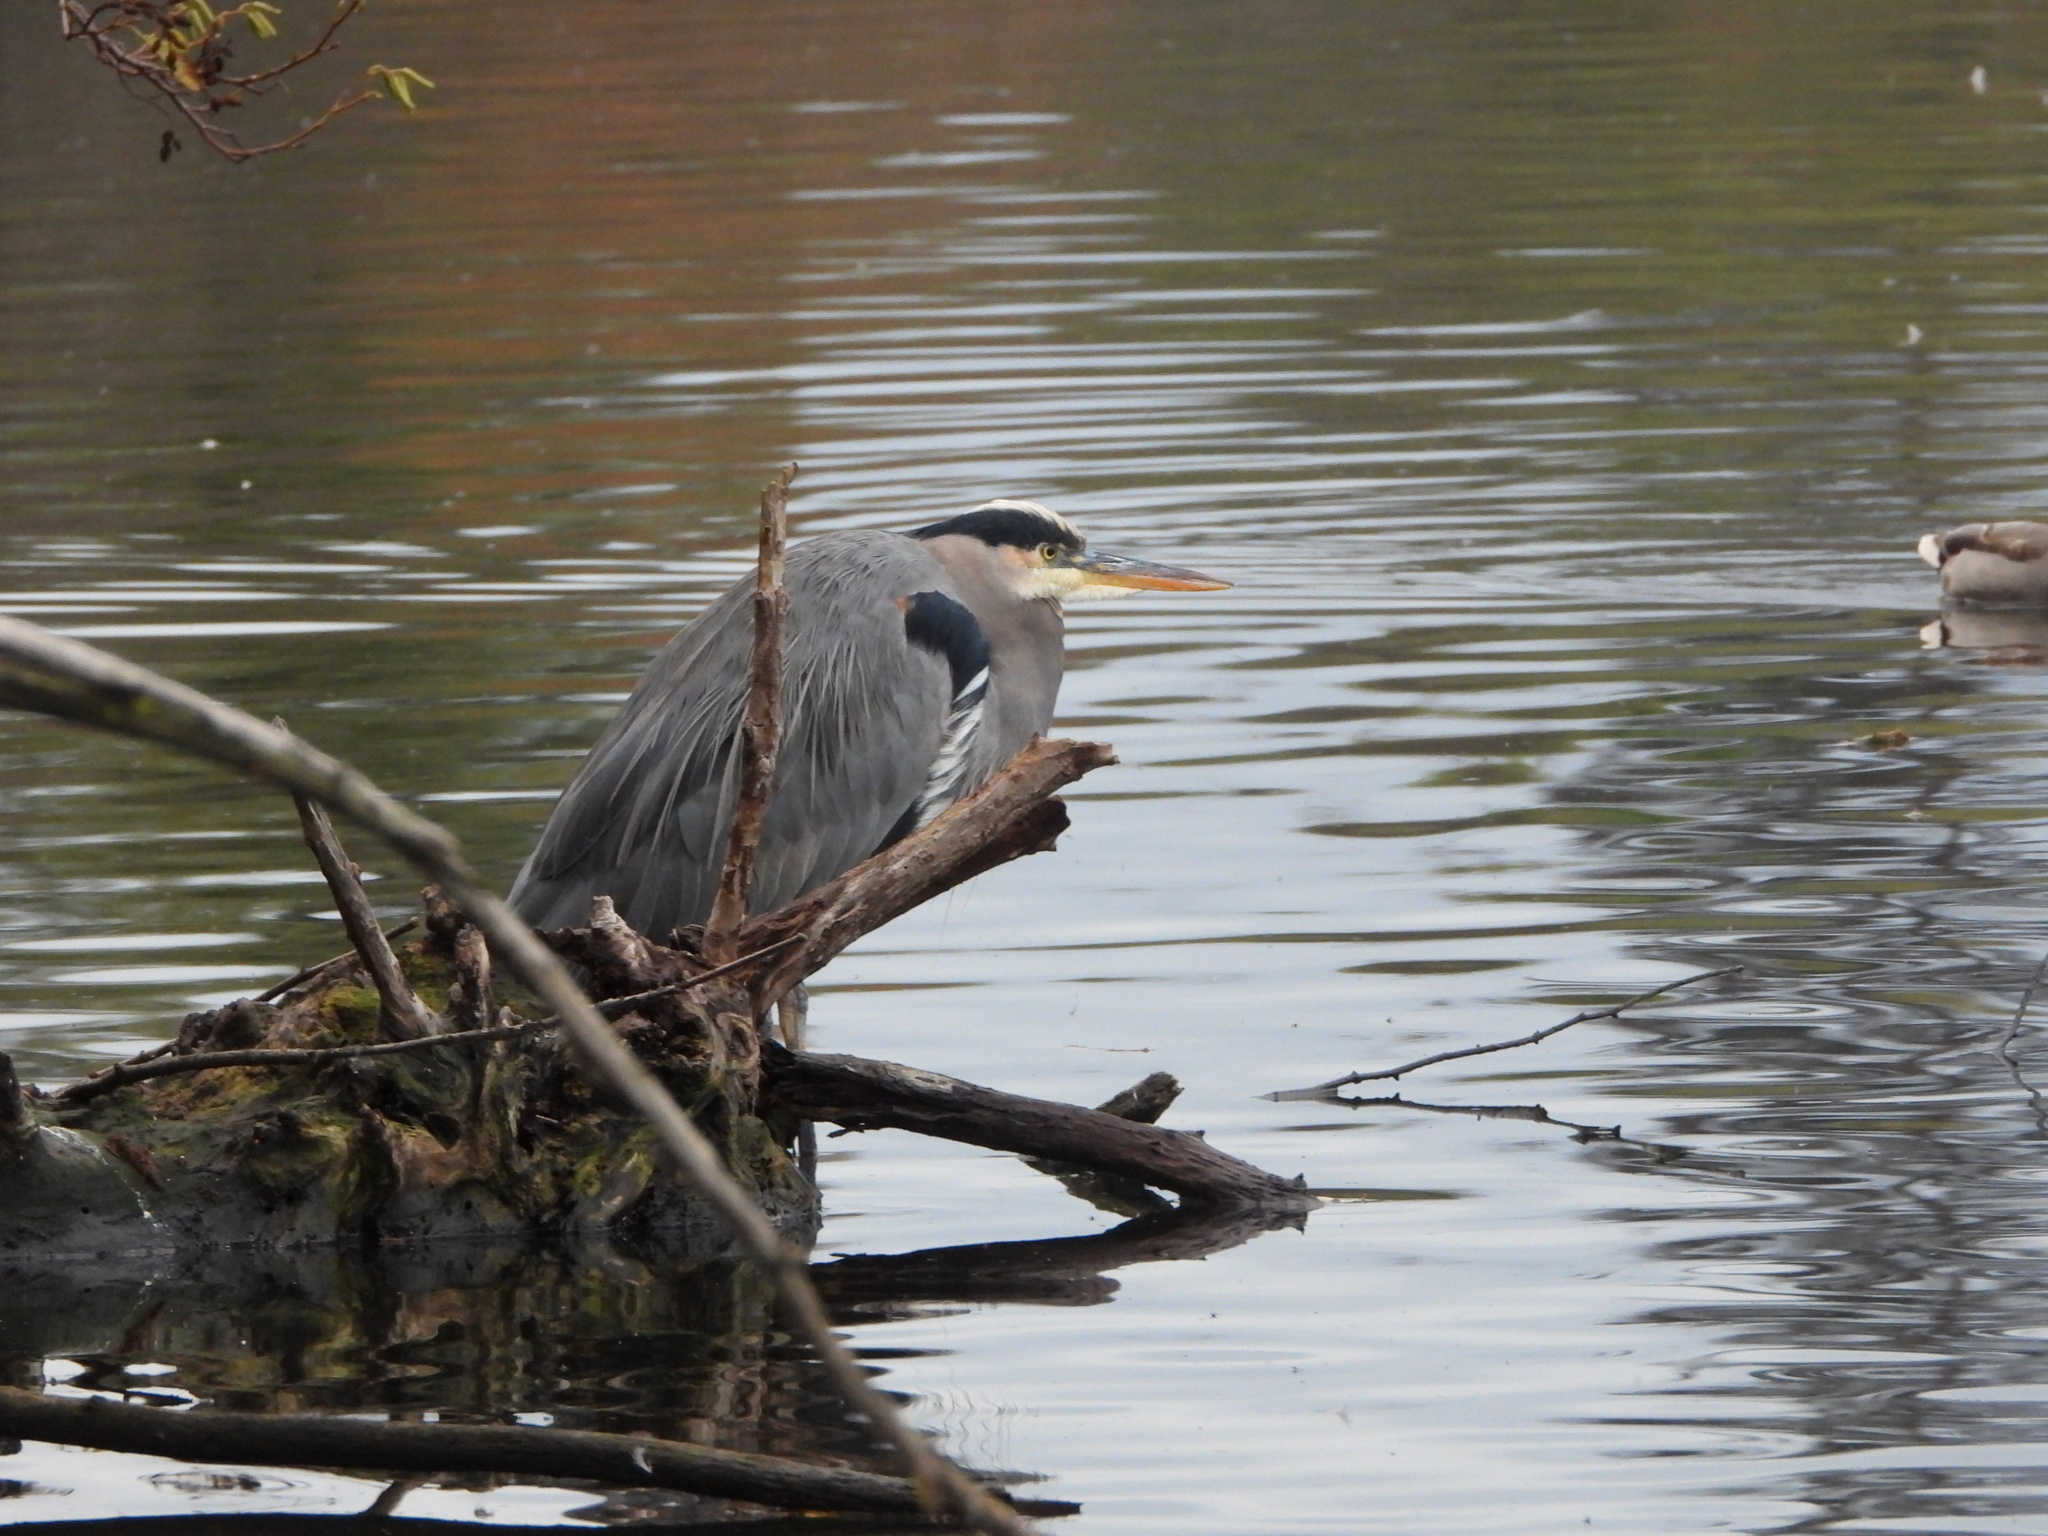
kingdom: Animalia
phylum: Chordata
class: Aves
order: Pelecaniformes
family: Ardeidae
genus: Ardea
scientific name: Ardea herodias
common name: Great blue heron
